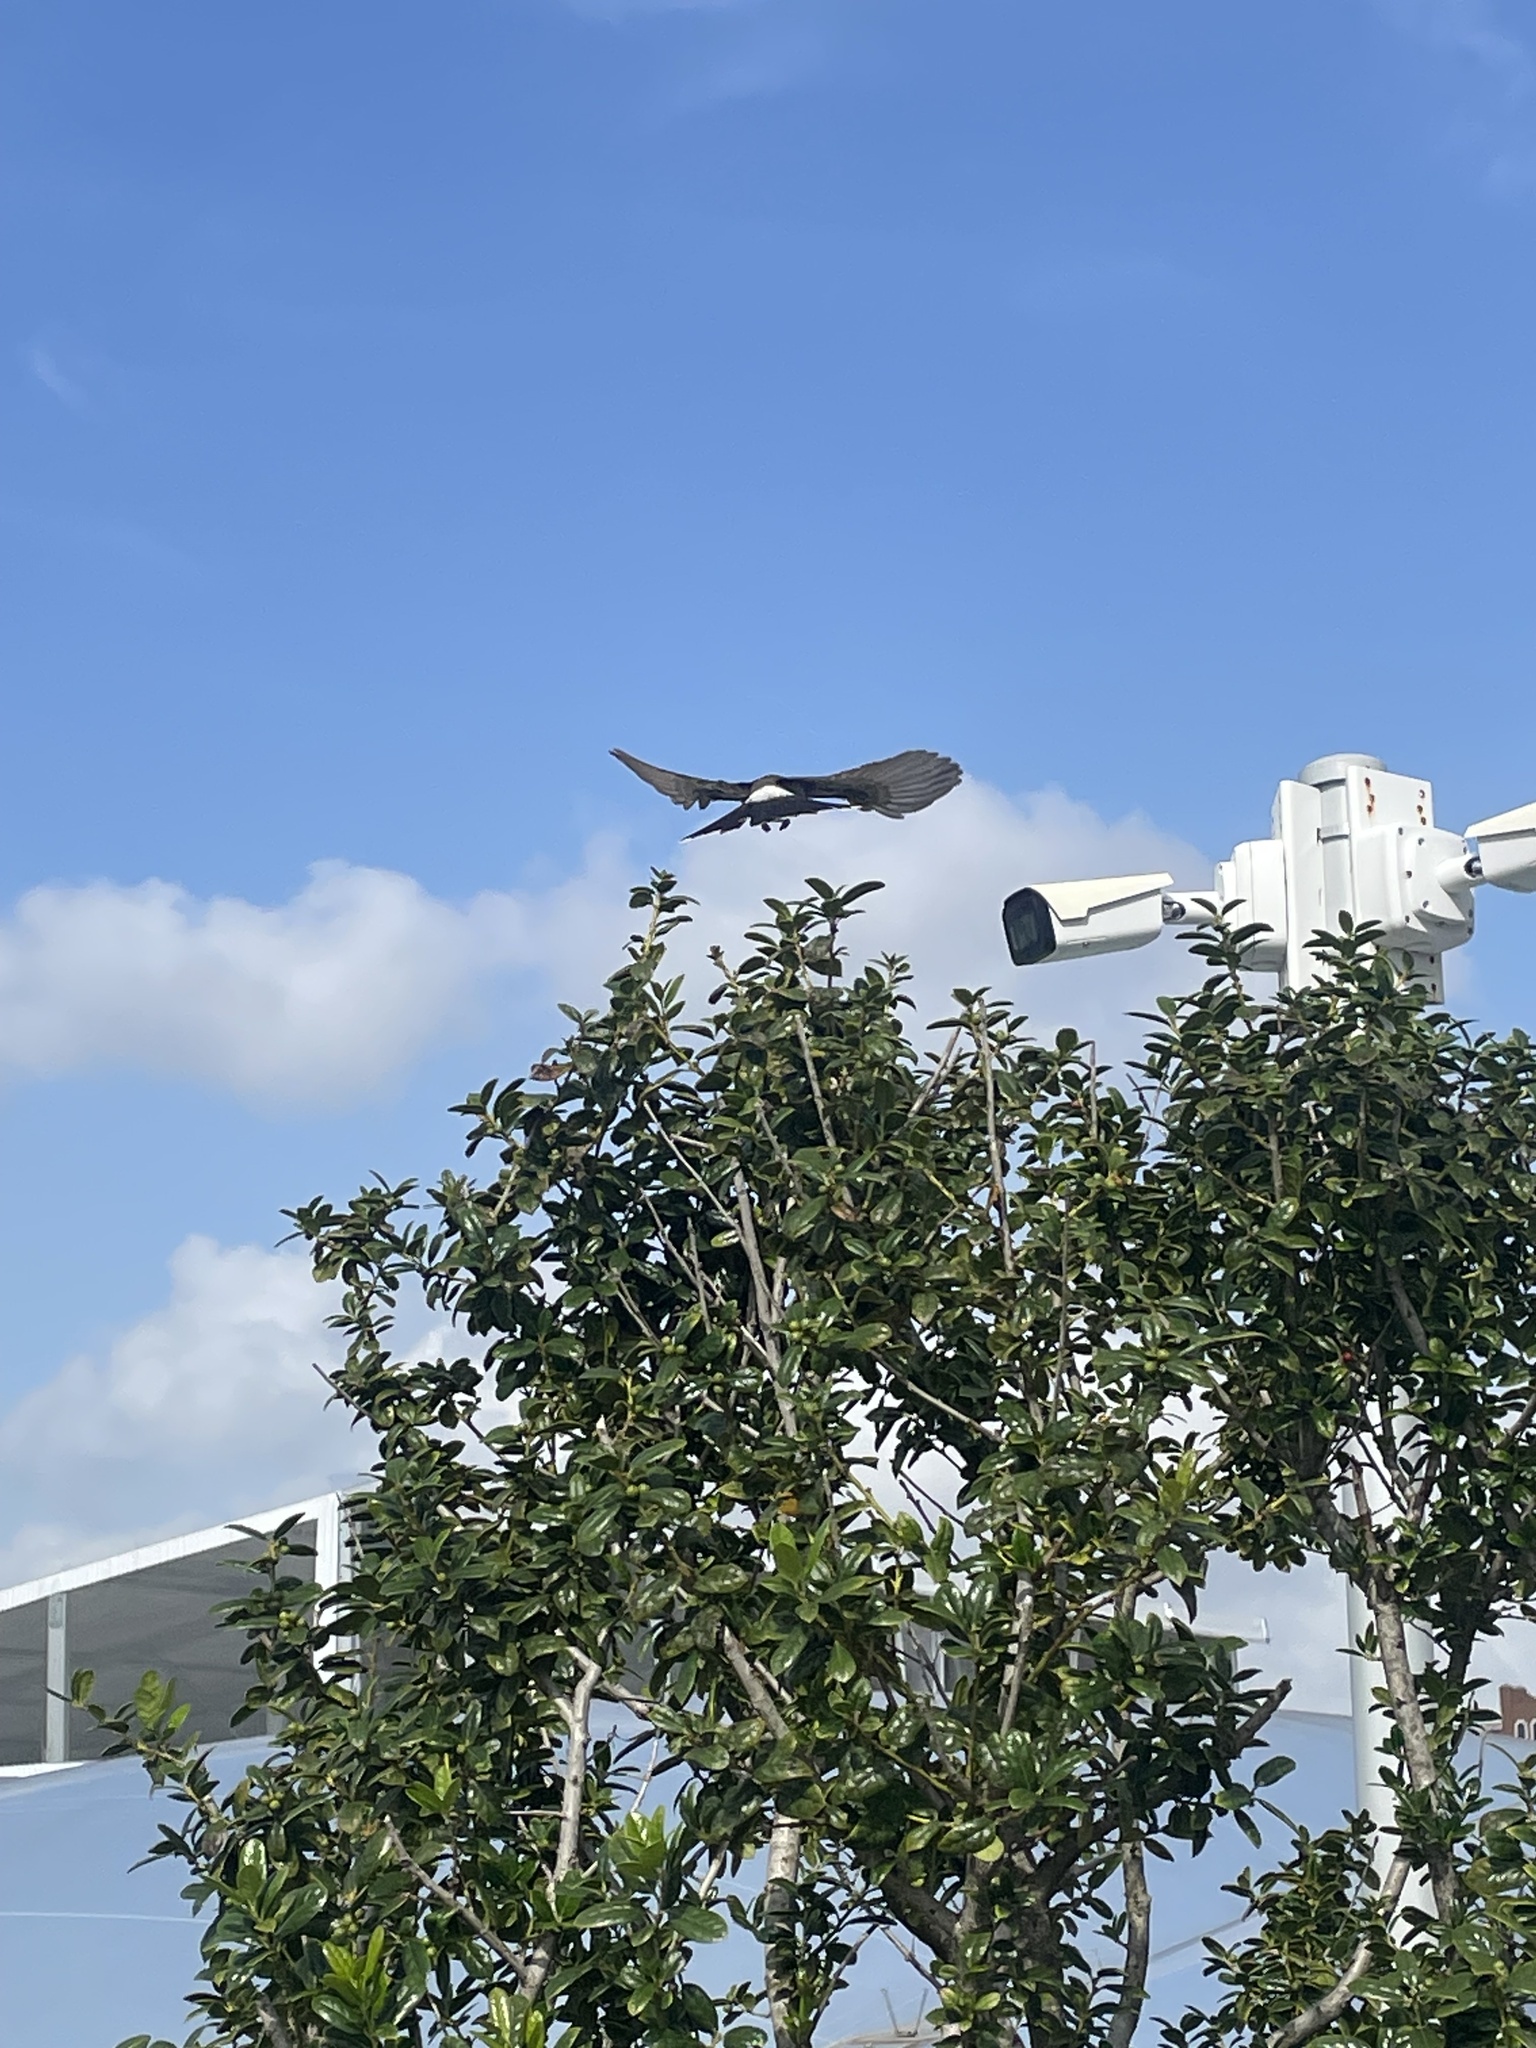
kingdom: Animalia
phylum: Chordata
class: Aves
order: Passeriformes
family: Pycnonotidae
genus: Pycnonotus
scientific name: Pycnonotus cafer
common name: Red-vented bulbul
